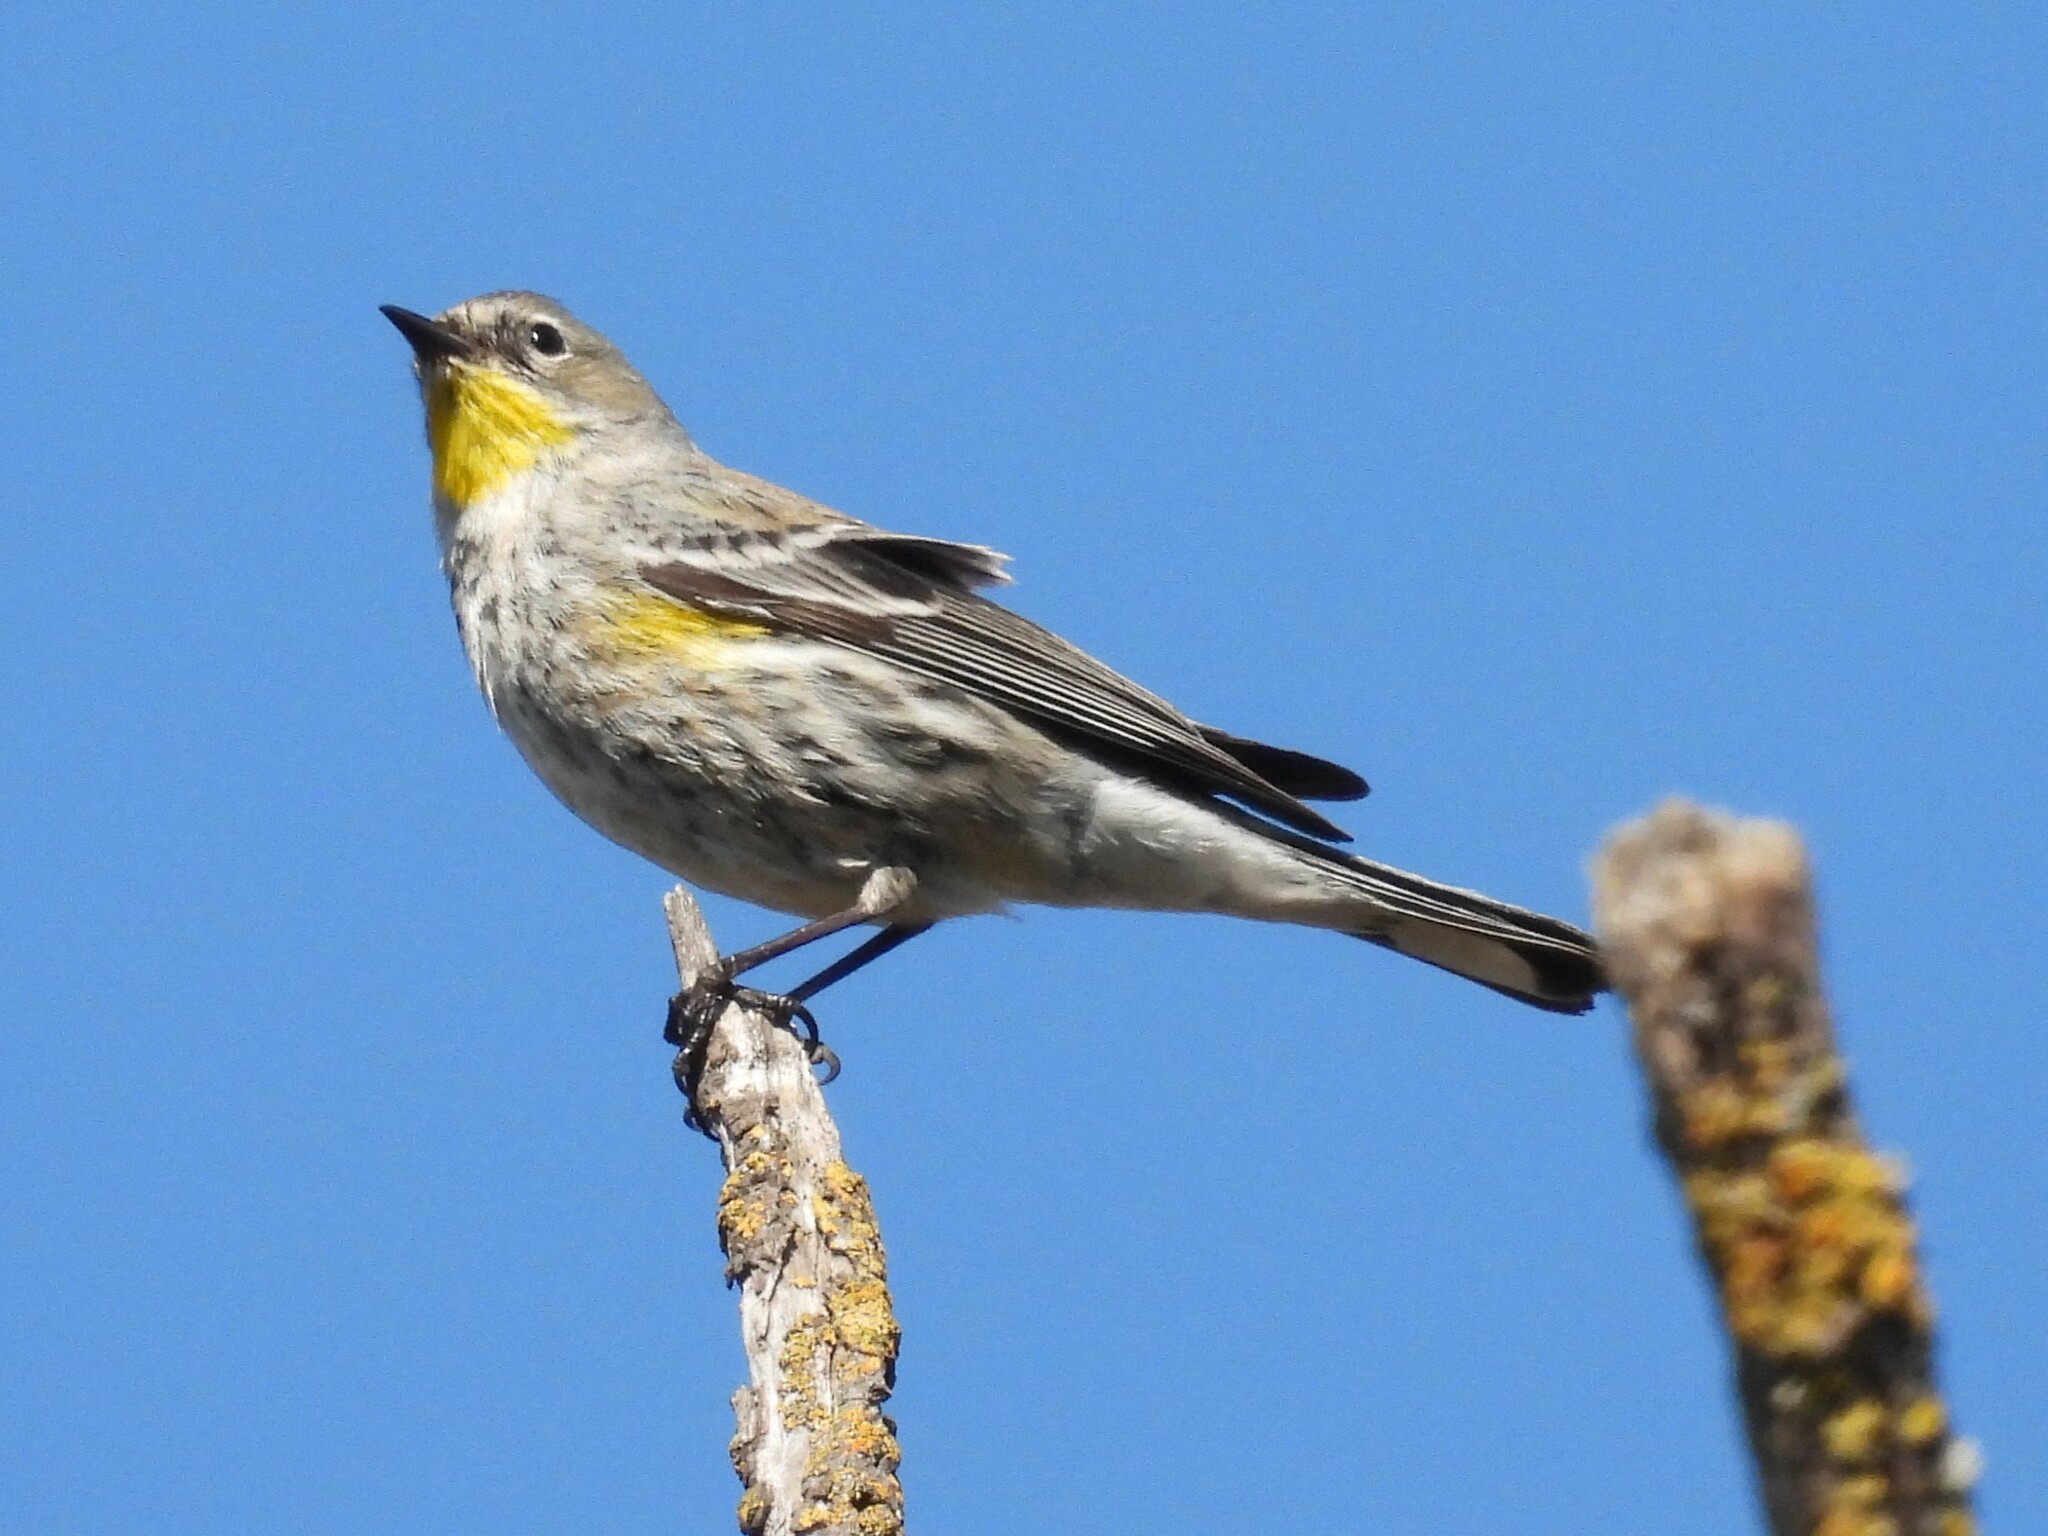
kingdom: Animalia
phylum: Chordata
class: Aves
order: Passeriformes
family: Parulidae
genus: Setophaga
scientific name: Setophaga coronata
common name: Myrtle warbler
